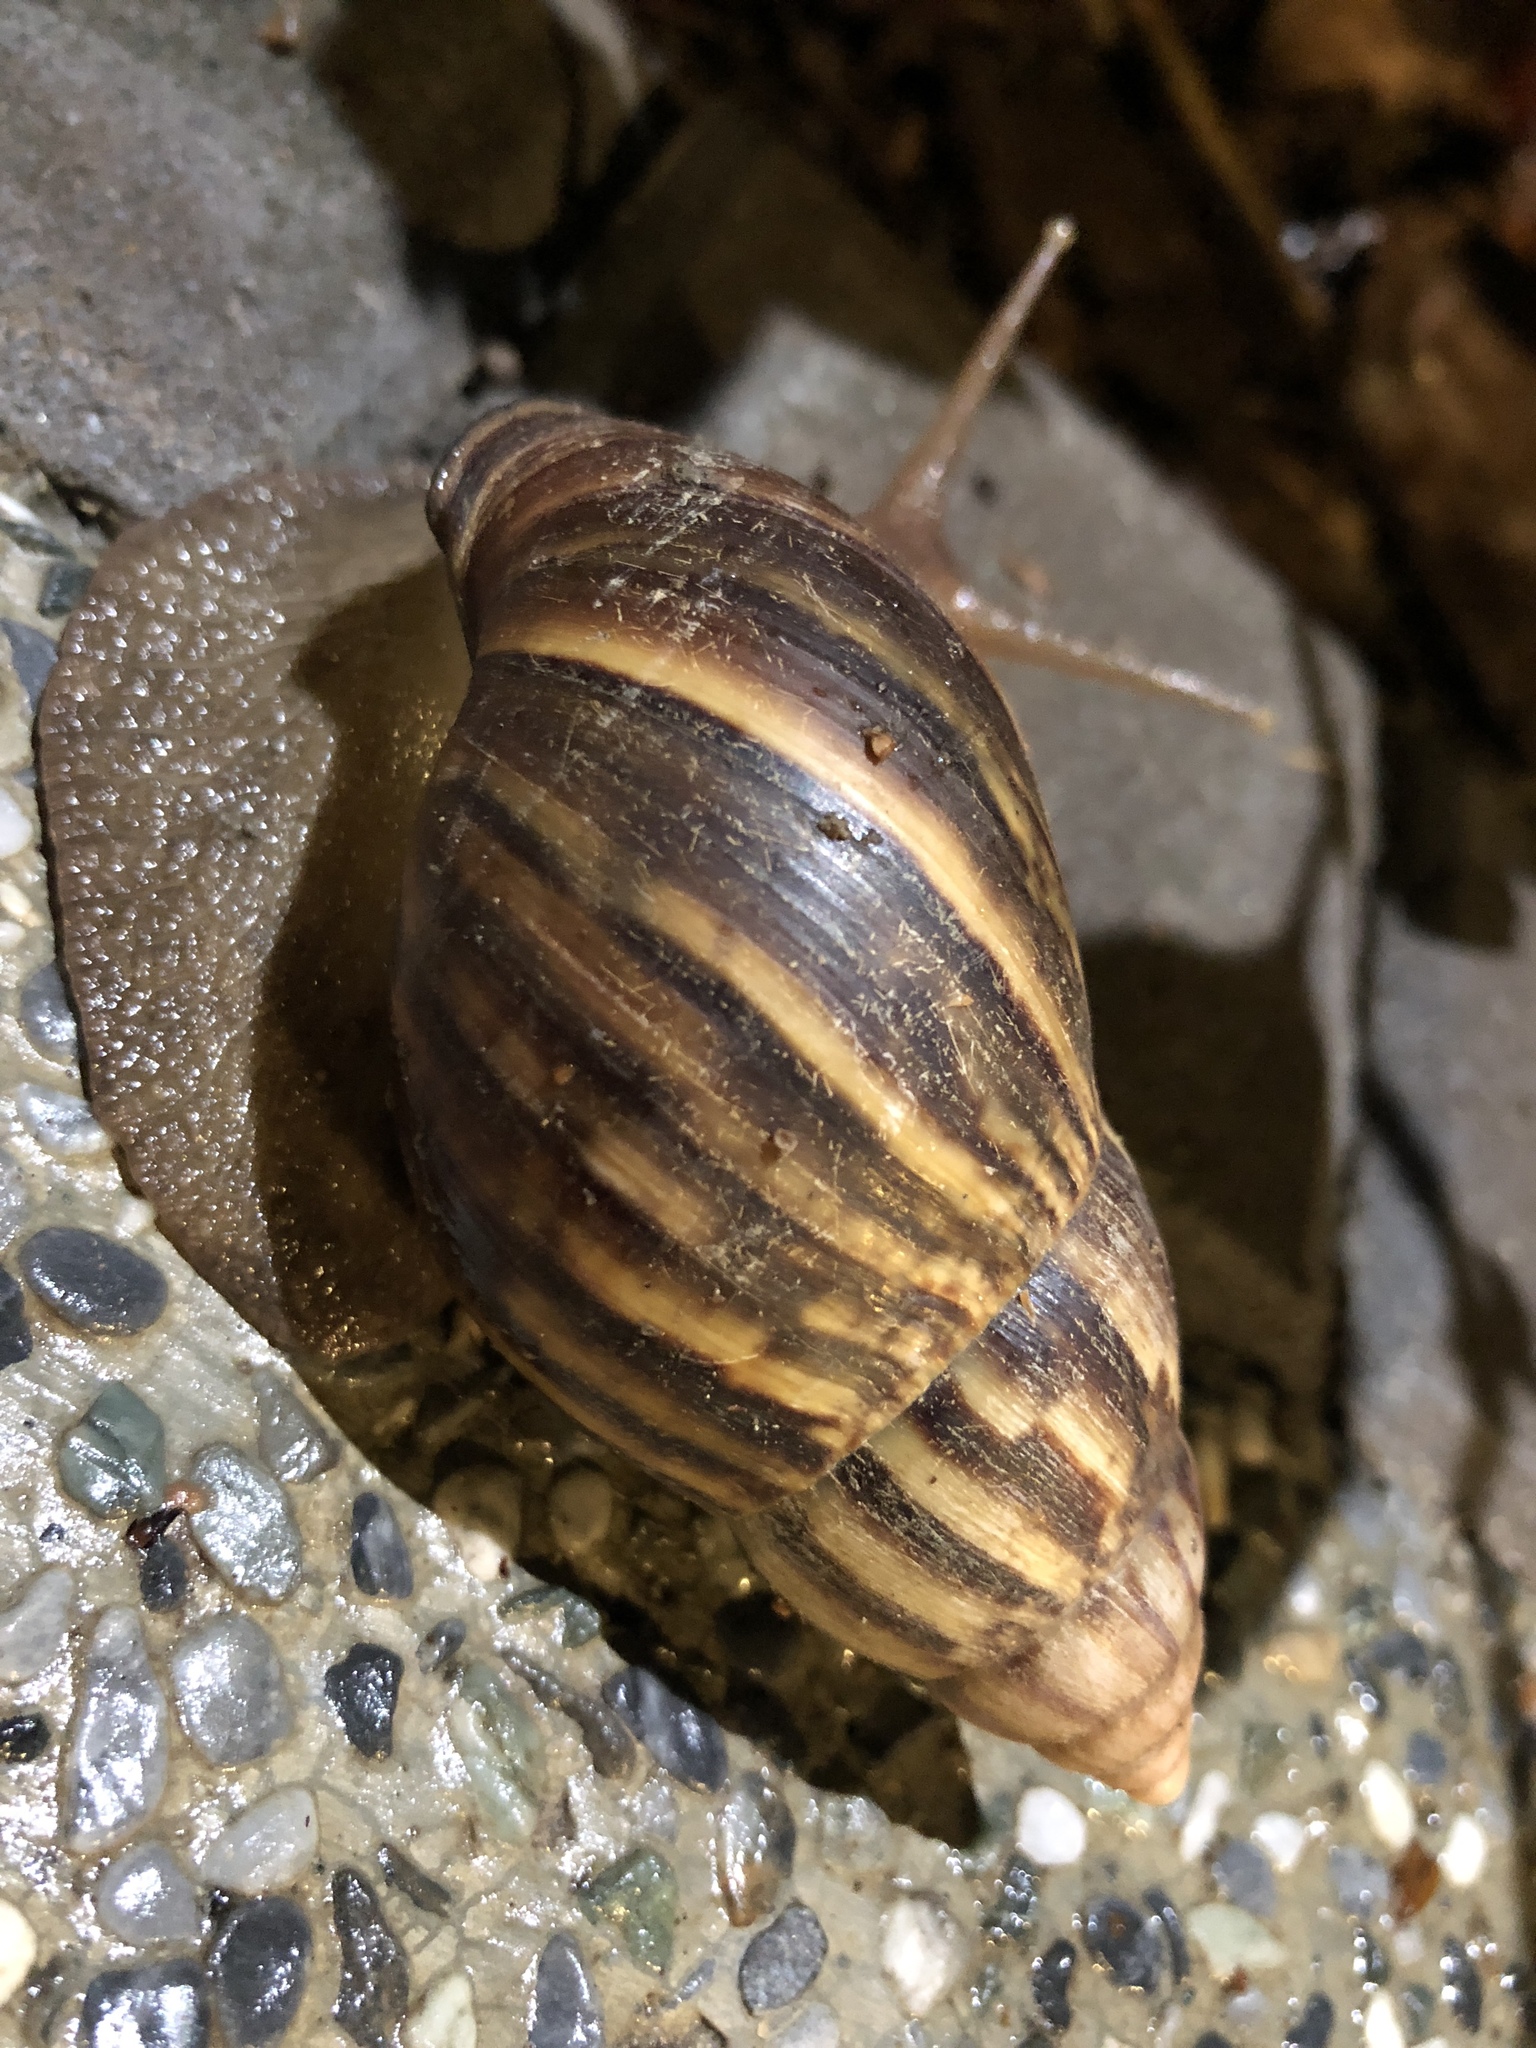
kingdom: Animalia
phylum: Mollusca
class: Gastropoda
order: Stylommatophora
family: Achatinidae
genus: Lissachatina
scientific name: Lissachatina fulica
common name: Giant african snail
